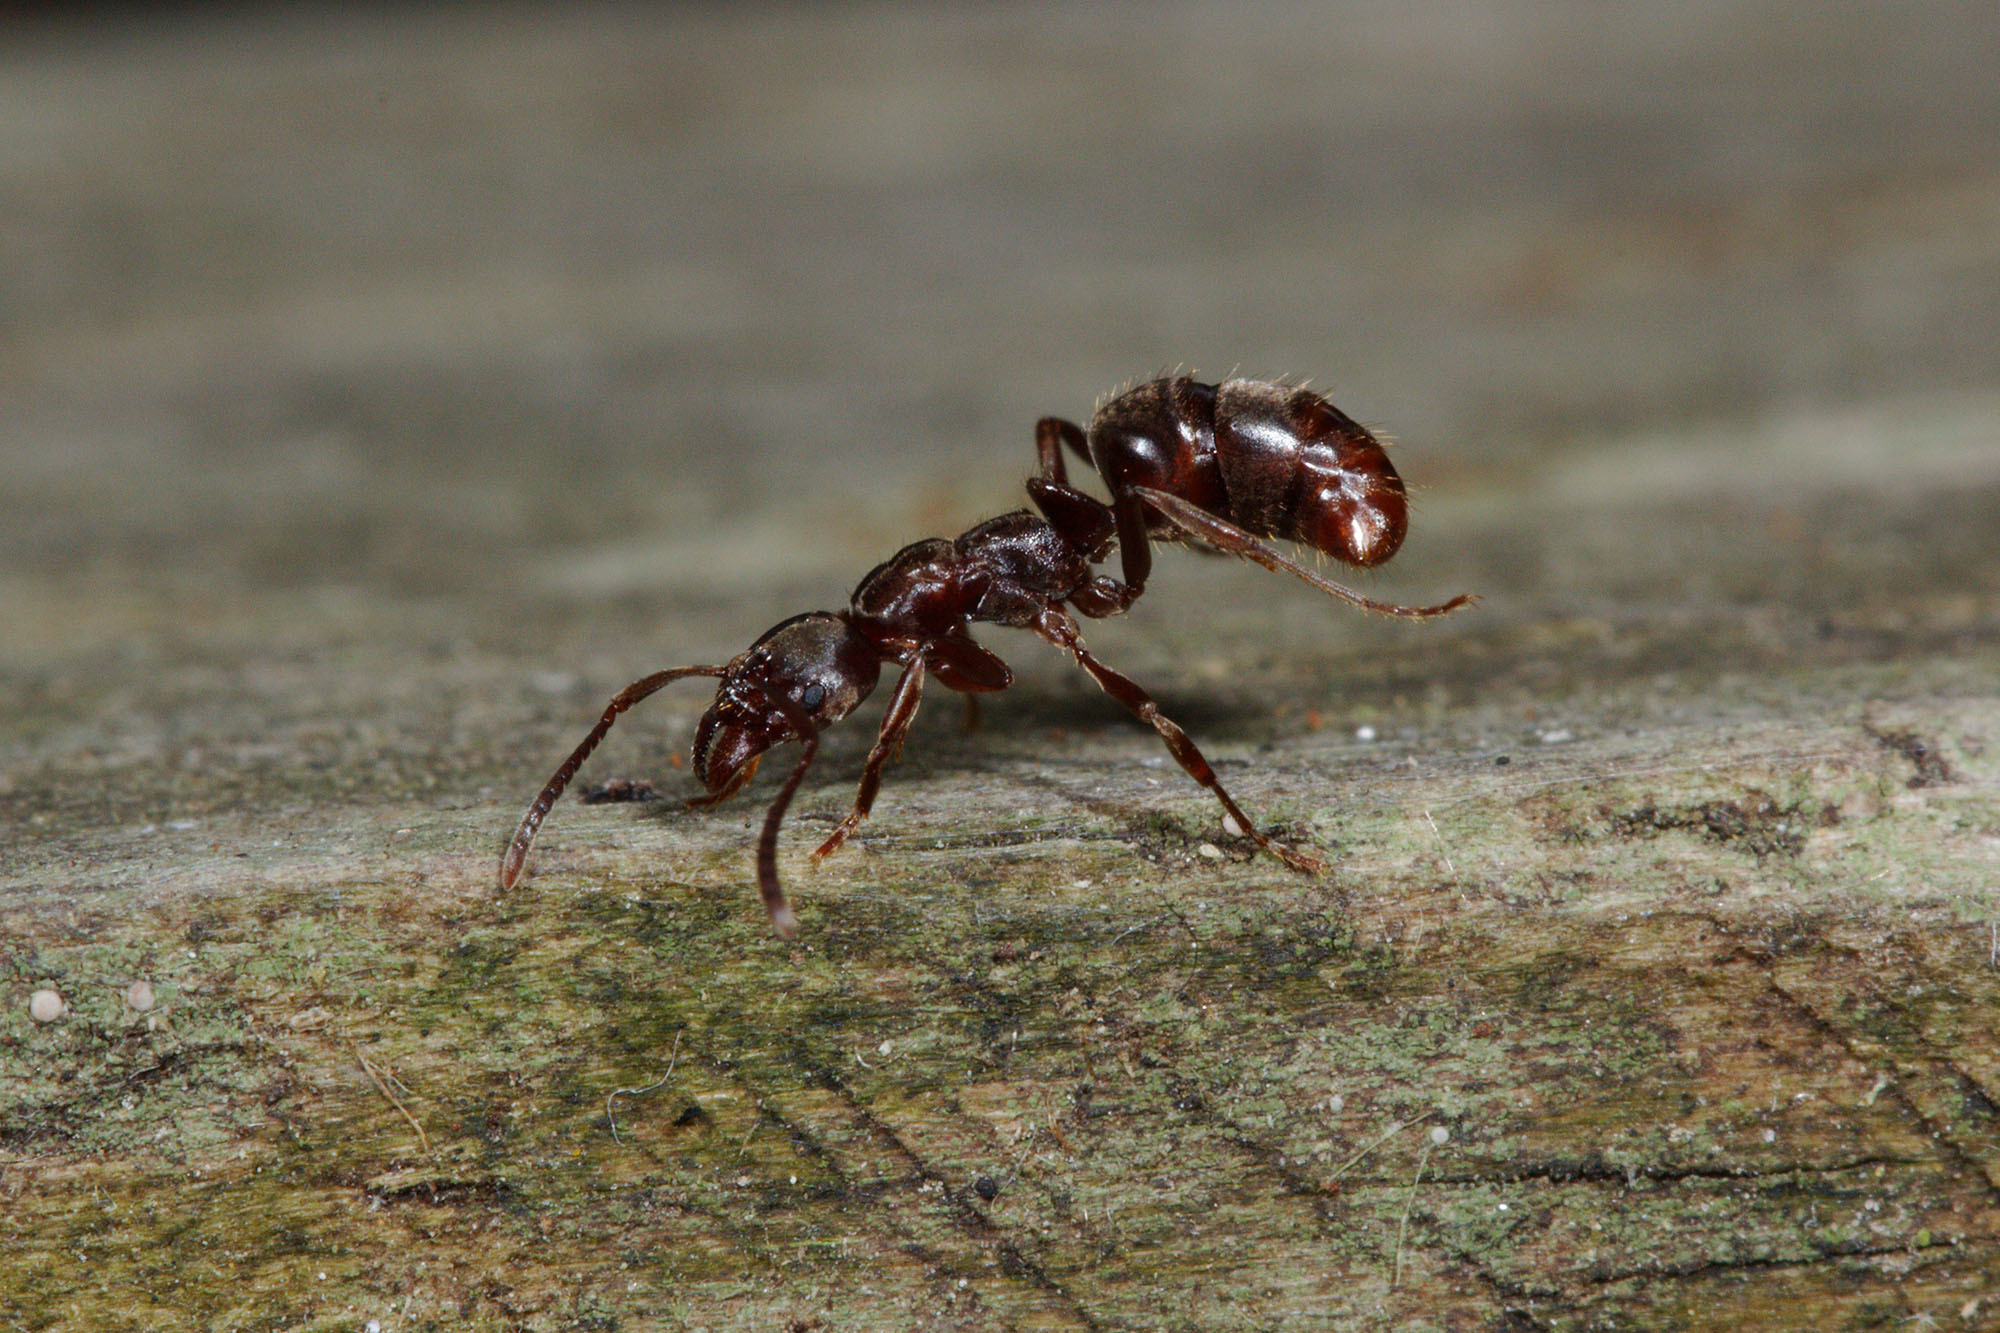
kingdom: Animalia
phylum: Arthropoda
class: Insecta
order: Hymenoptera
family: Formicidae
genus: Austroponera
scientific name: Austroponera
